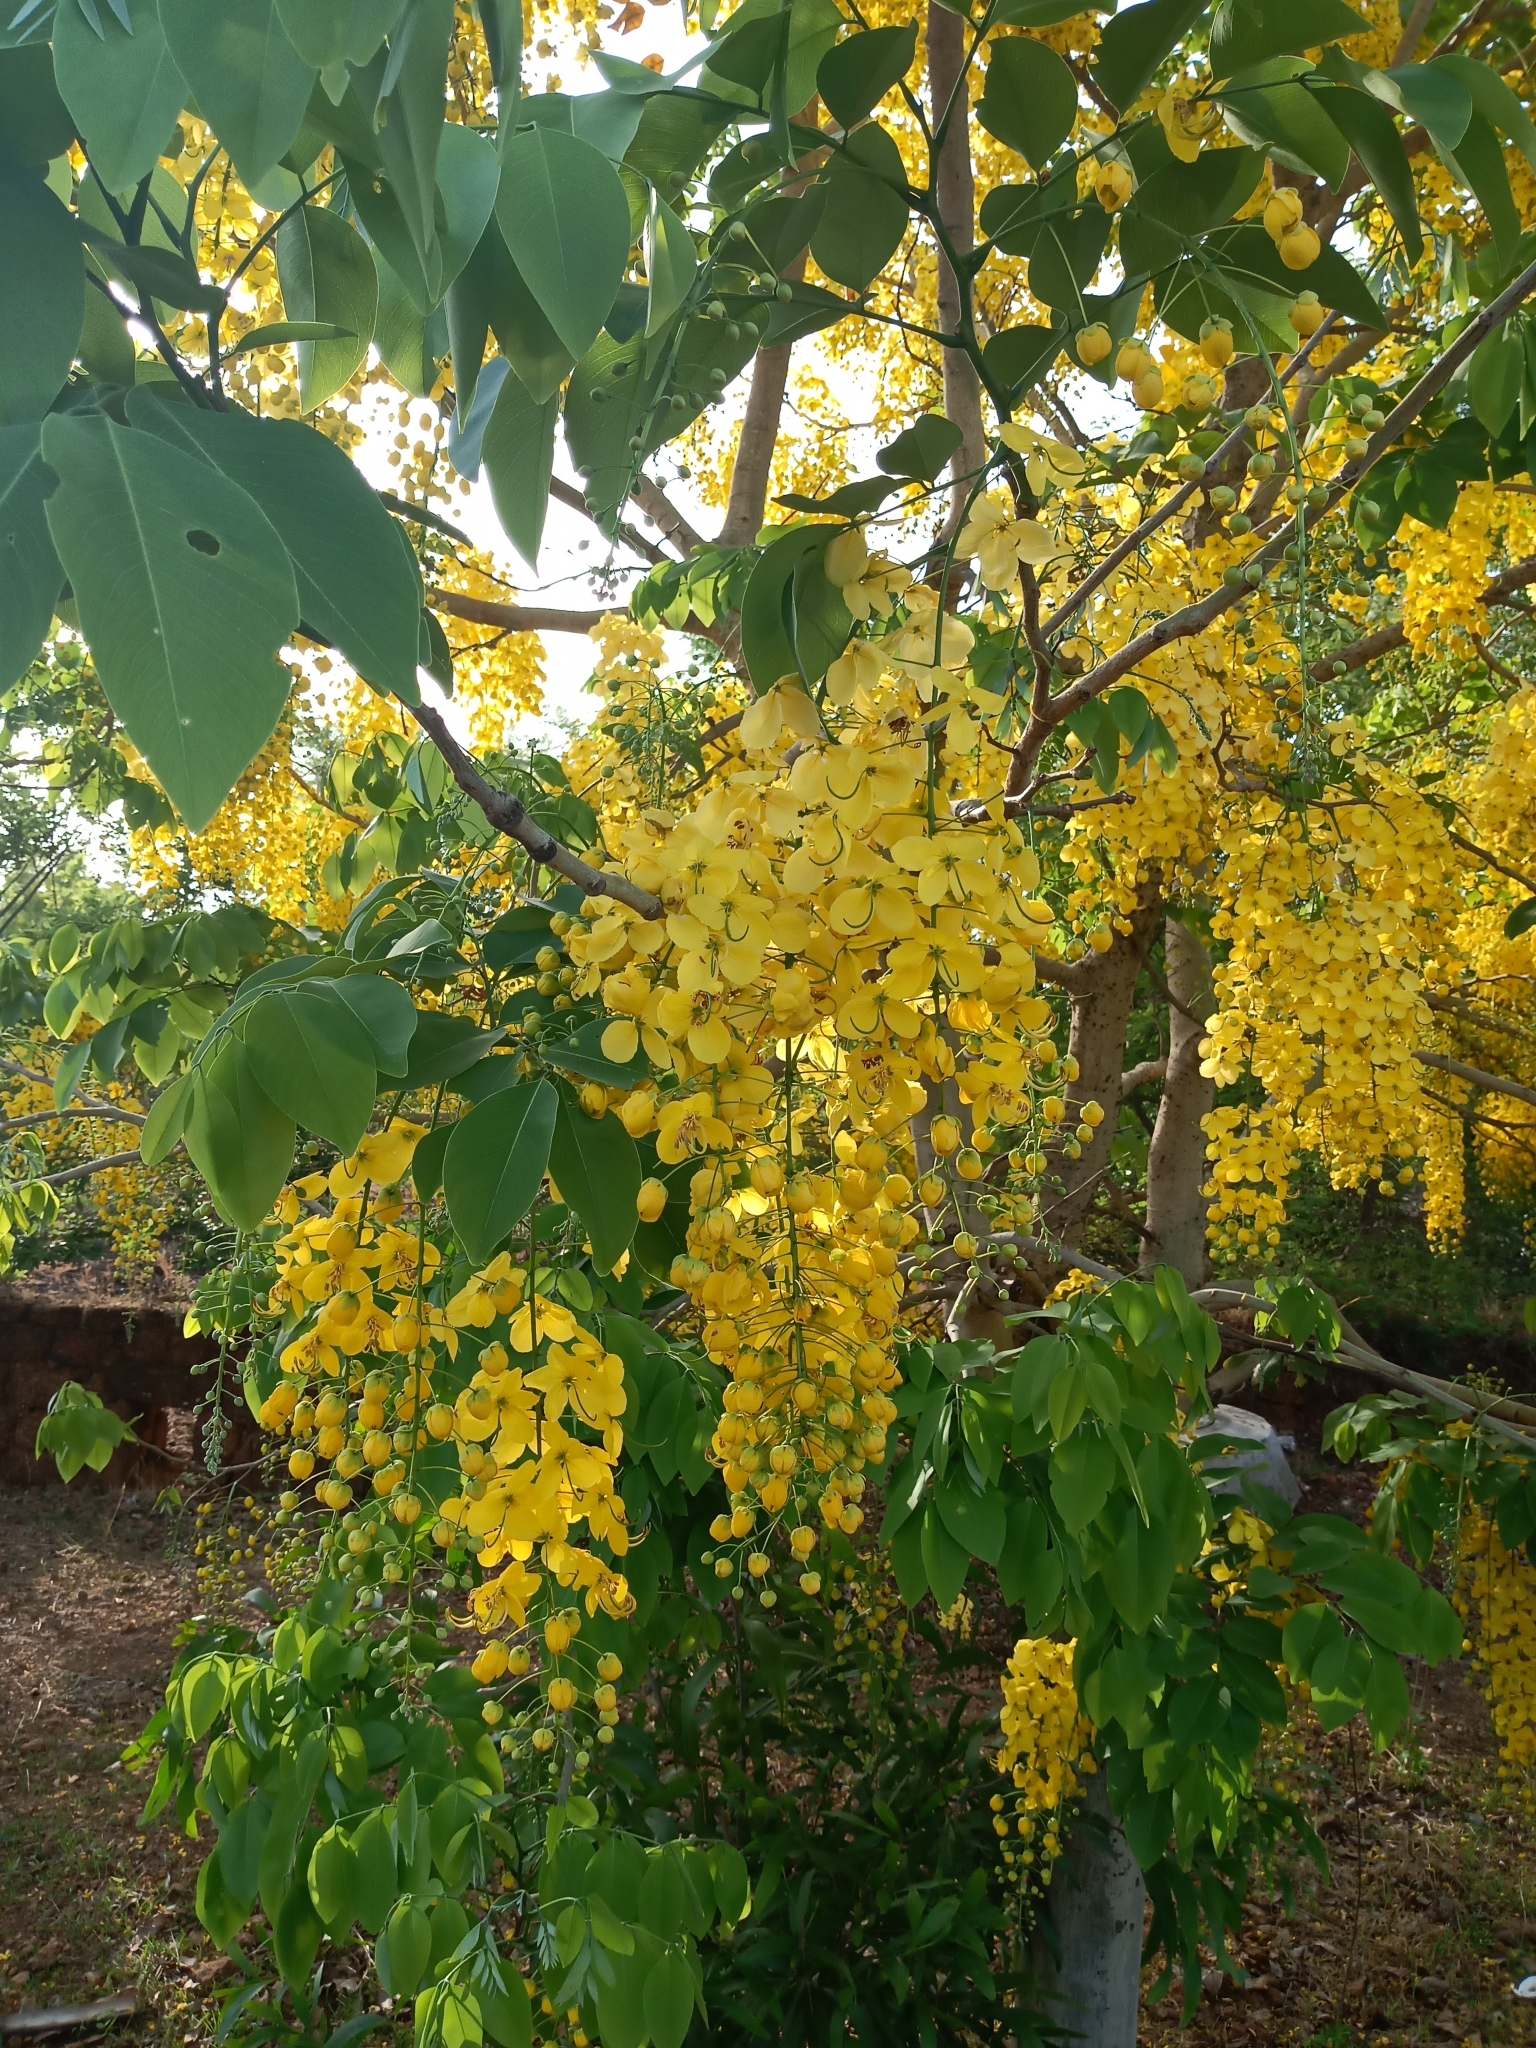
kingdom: Plantae
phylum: Tracheophyta
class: Magnoliopsida
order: Fabales
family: Fabaceae
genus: Cassia
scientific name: Cassia fistula
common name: Golden shower
